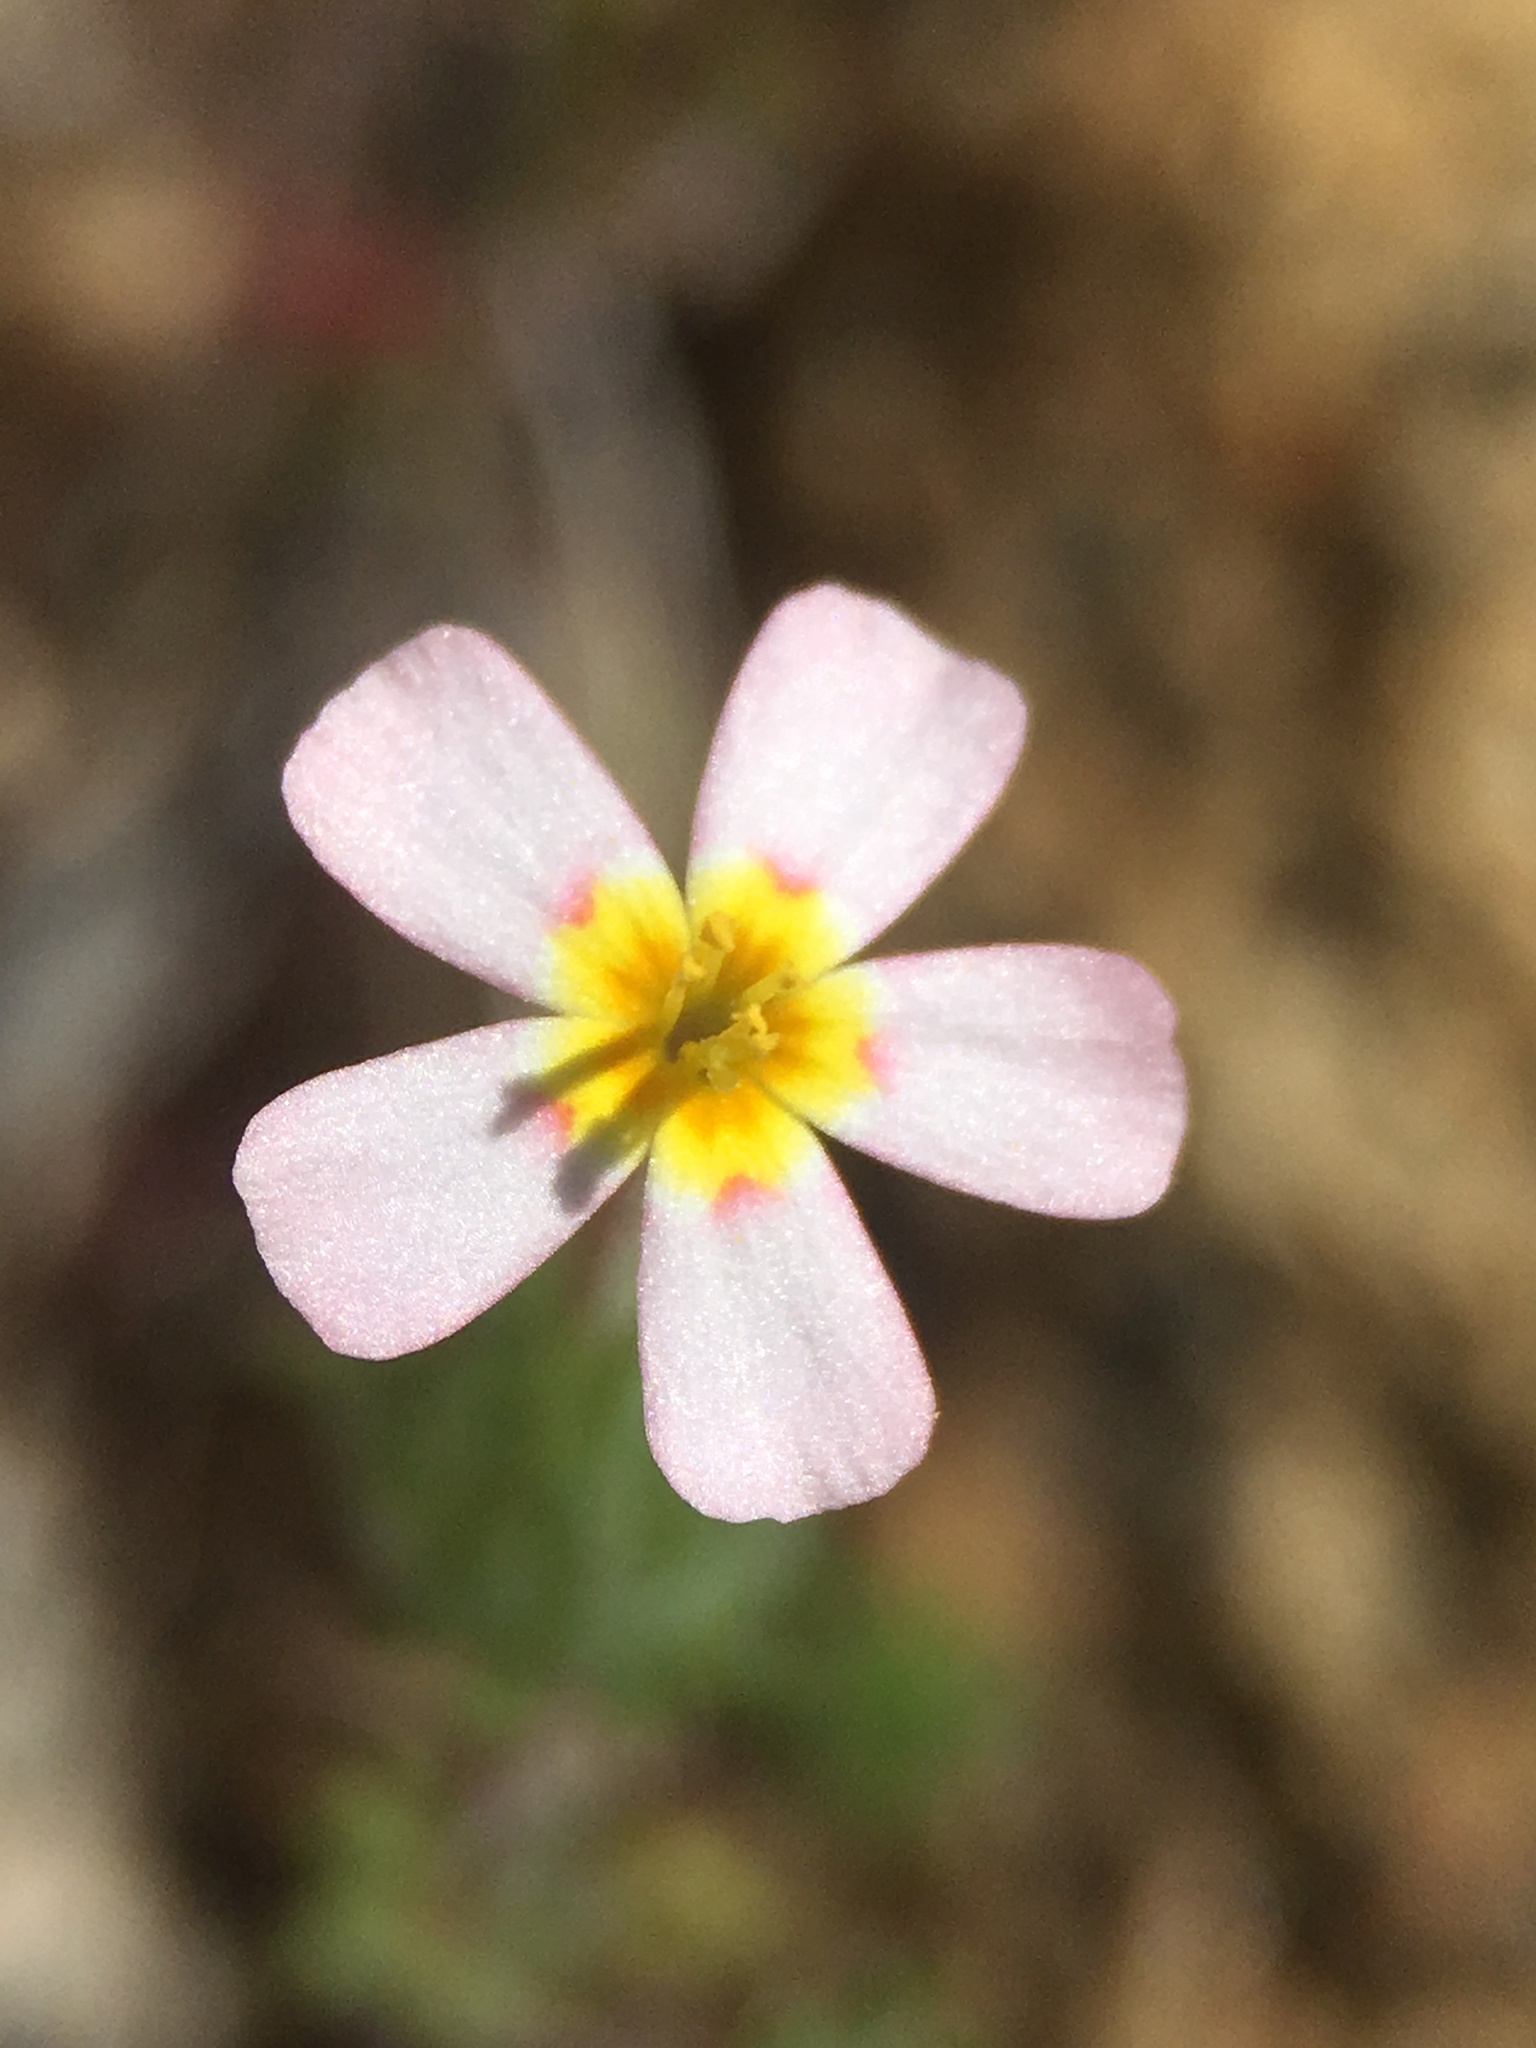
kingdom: Plantae
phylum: Tracheophyta
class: Magnoliopsida
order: Ericales
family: Polemoniaceae
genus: Leptosiphon
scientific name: Leptosiphon ciliatus
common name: Whiskerbrush
